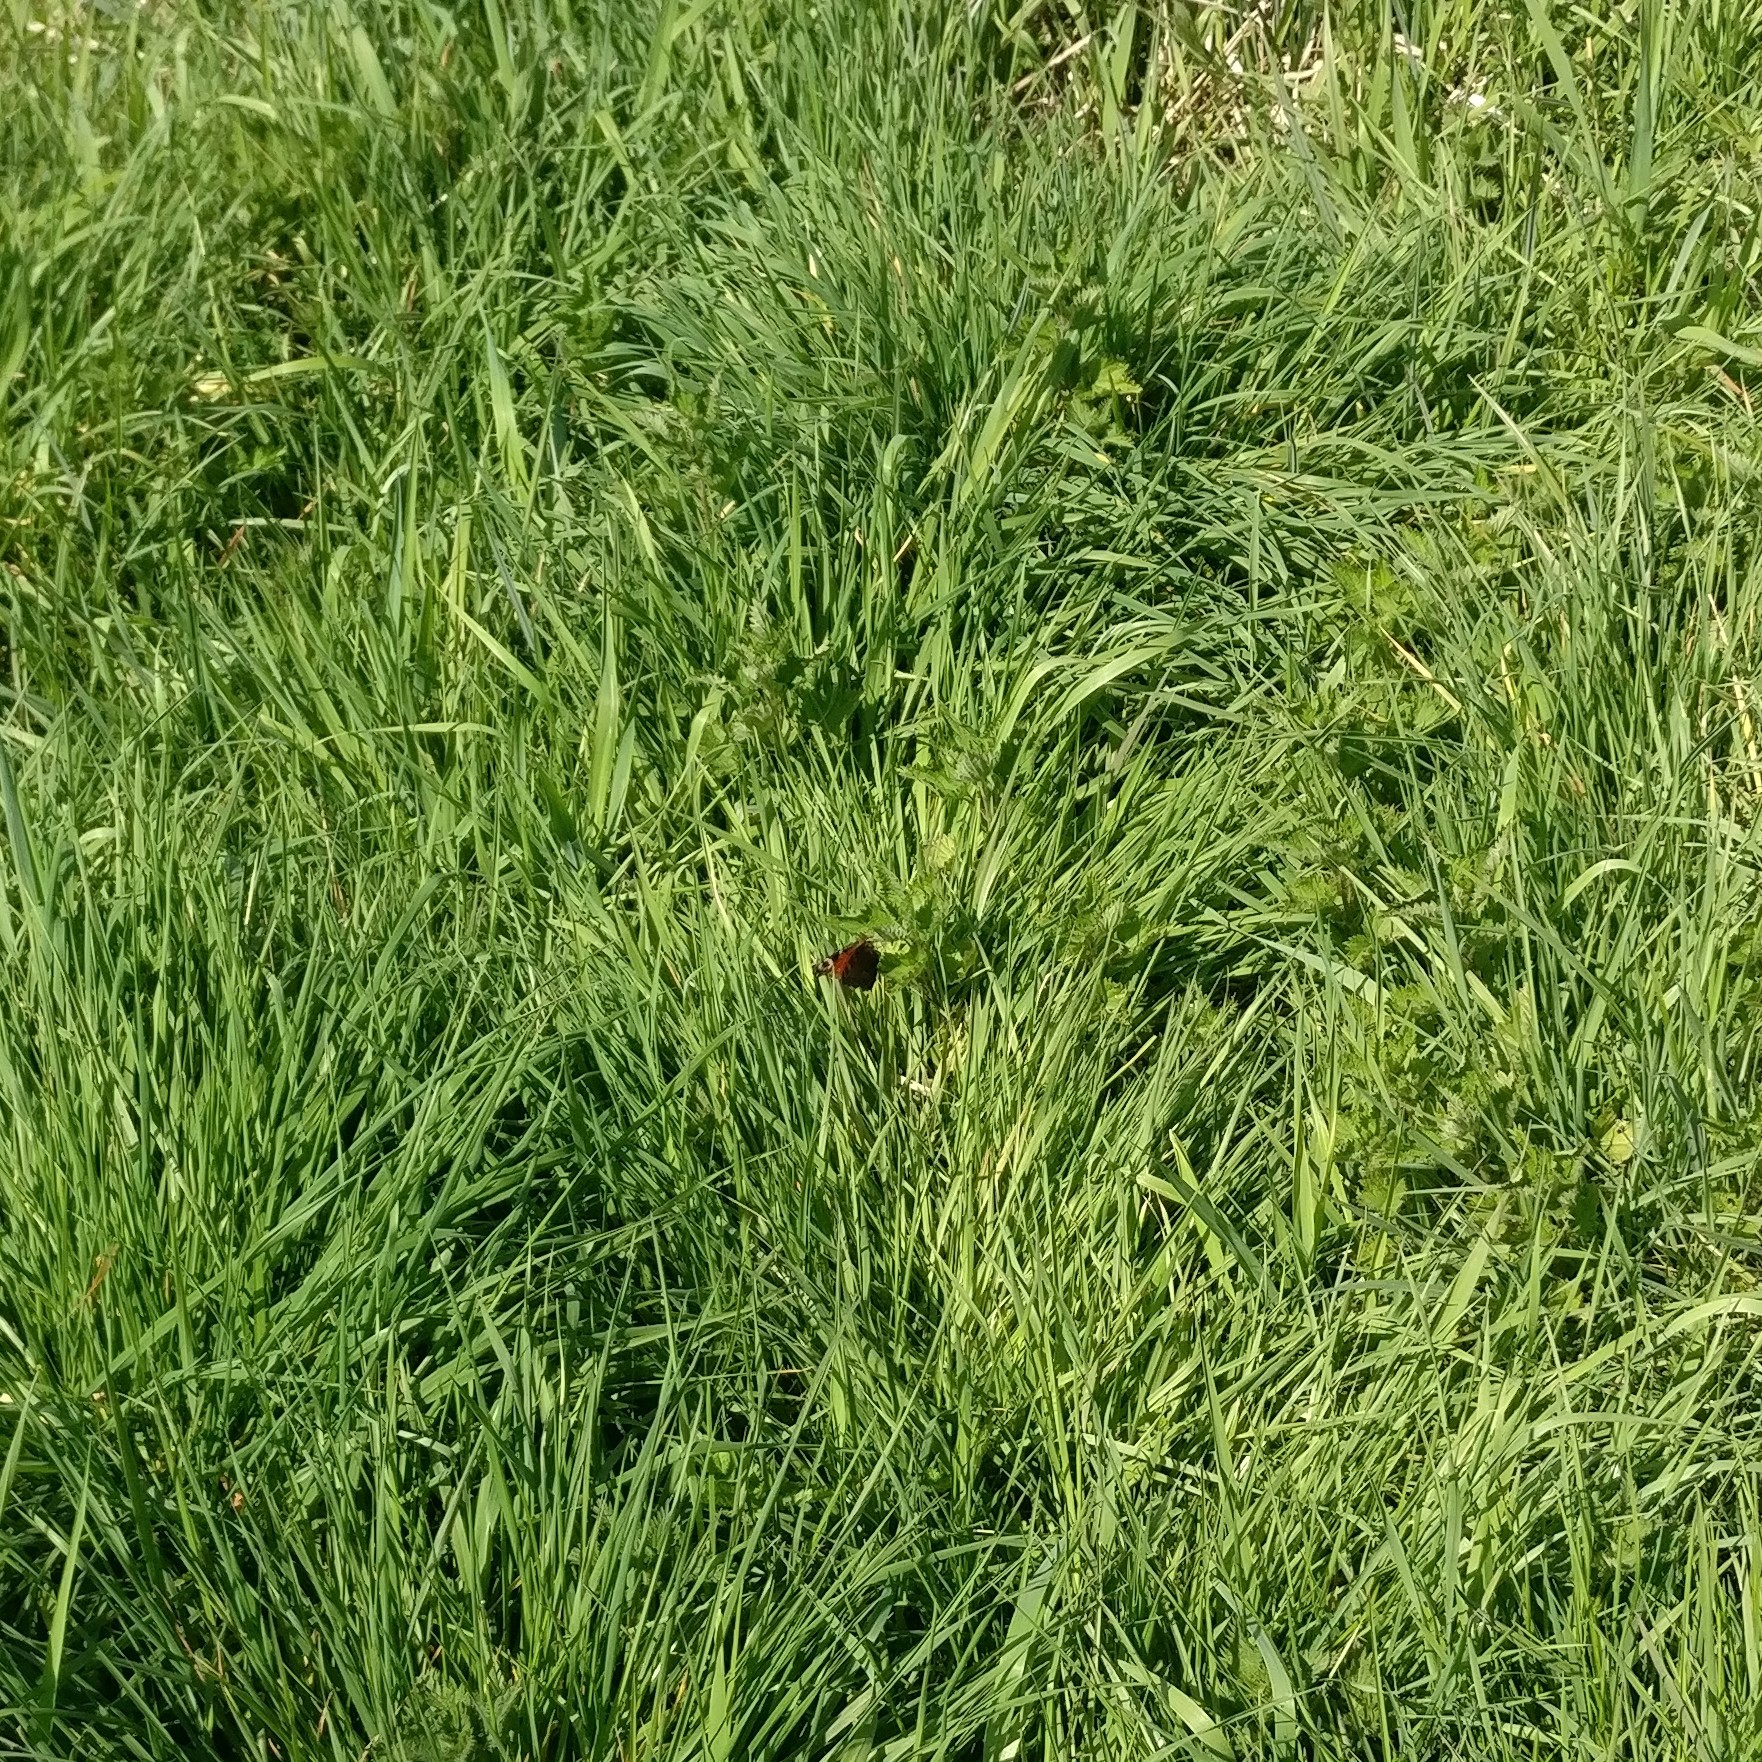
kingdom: Animalia
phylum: Arthropoda
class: Insecta
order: Lepidoptera
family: Nymphalidae
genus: Aglais
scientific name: Aglais io
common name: Peacock
